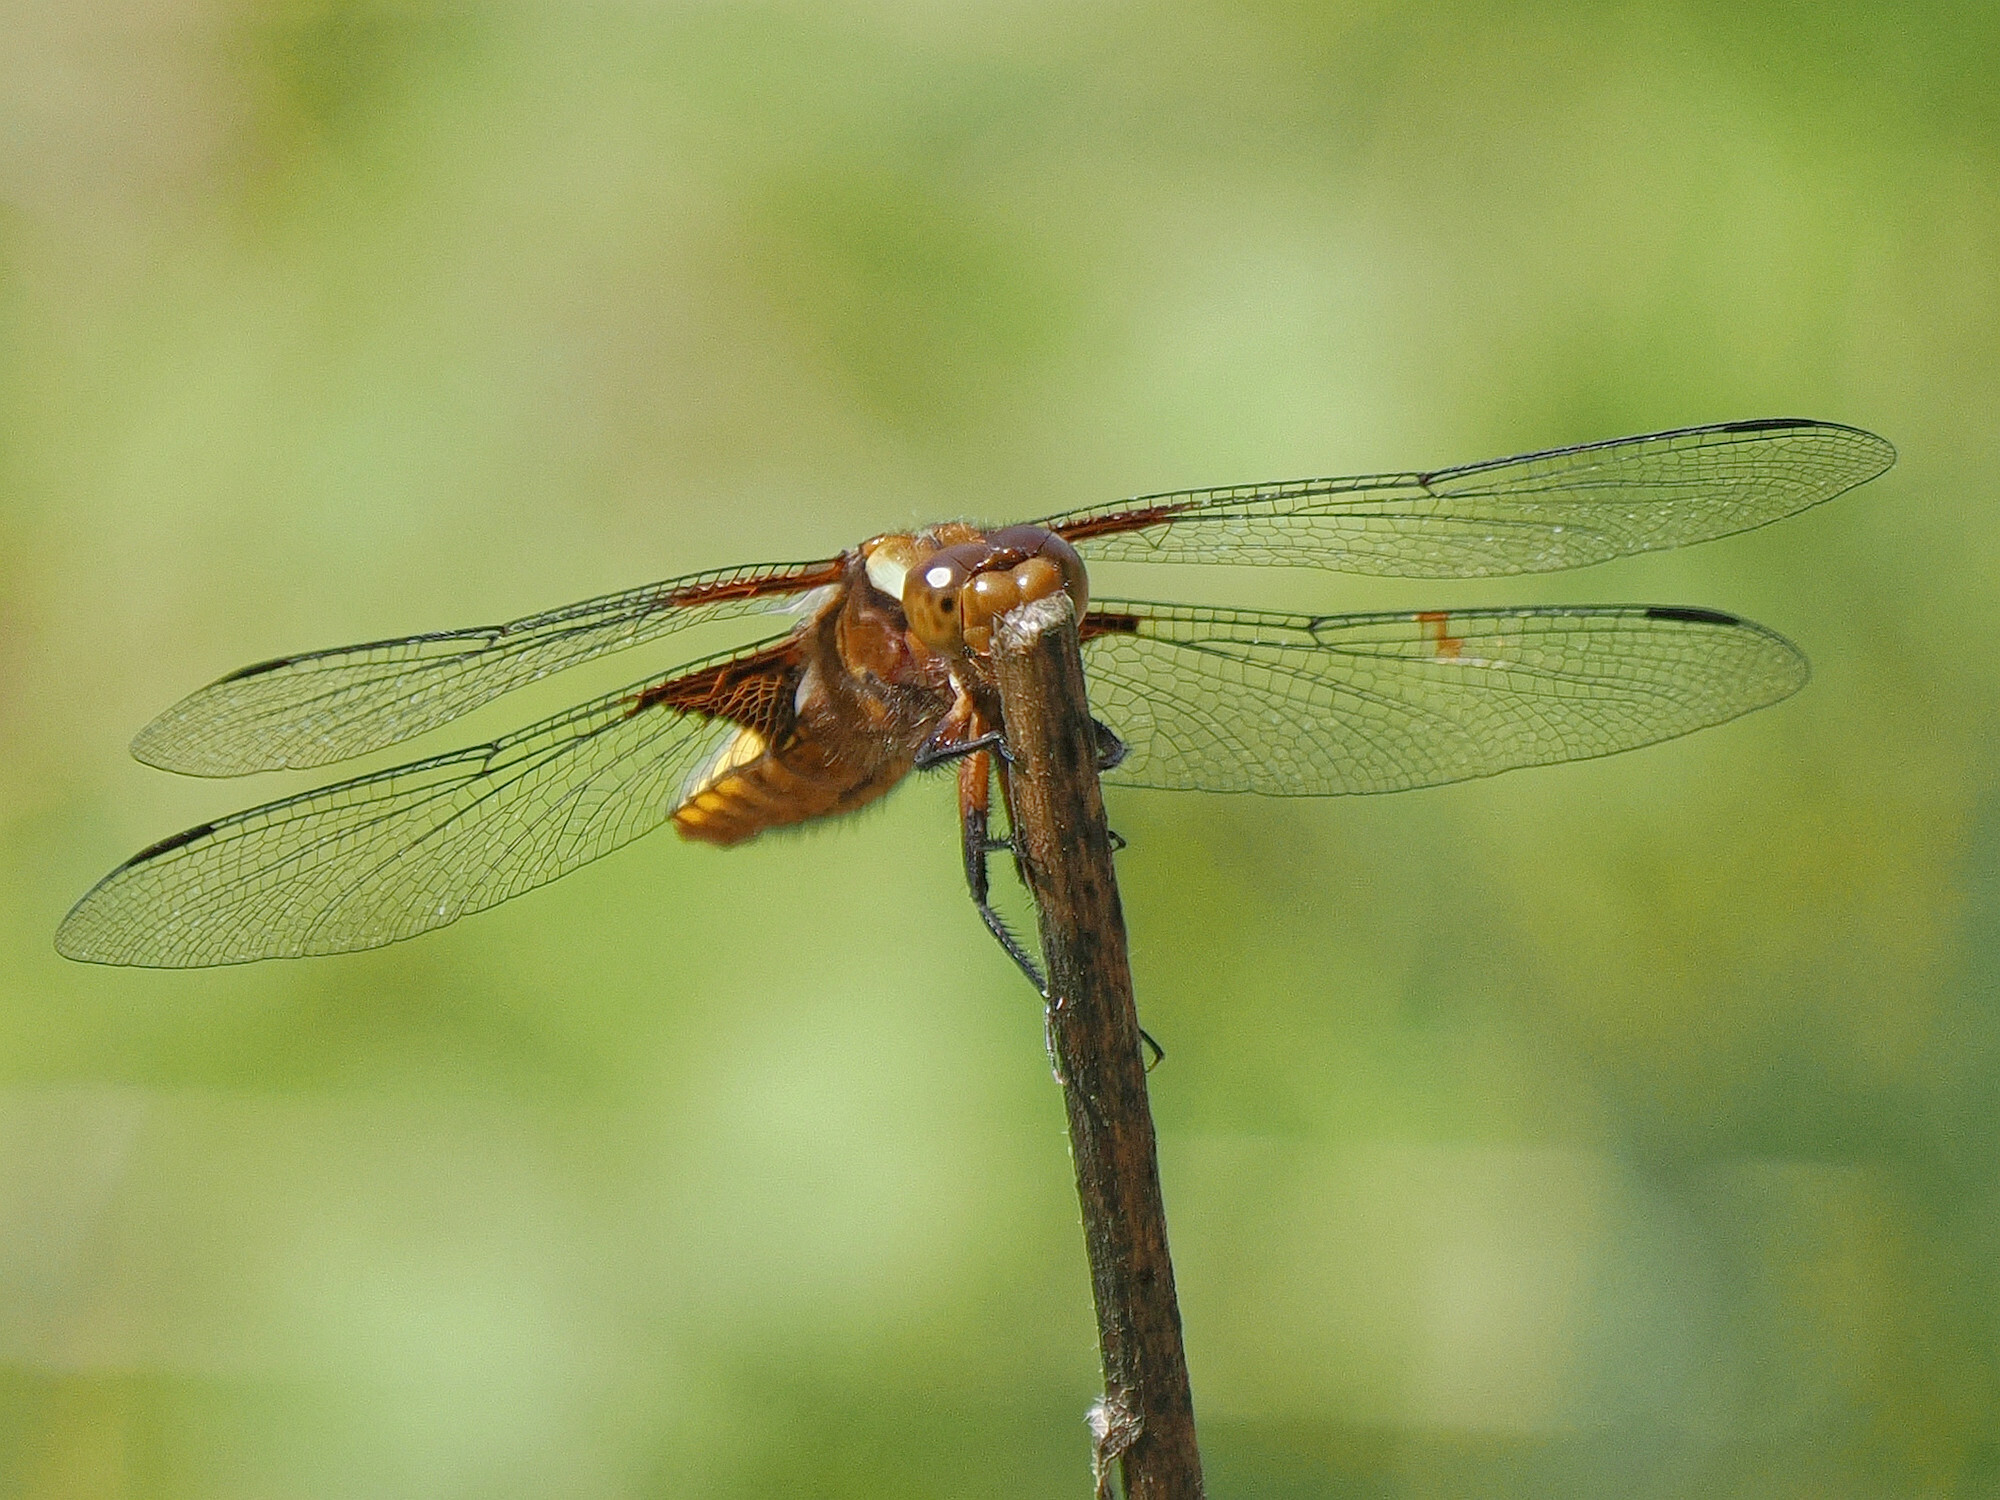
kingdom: Animalia
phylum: Arthropoda
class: Insecta
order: Odonata
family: Libellulidae
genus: Libellula
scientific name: Libellula depressa
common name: Broad-bodied chaser
